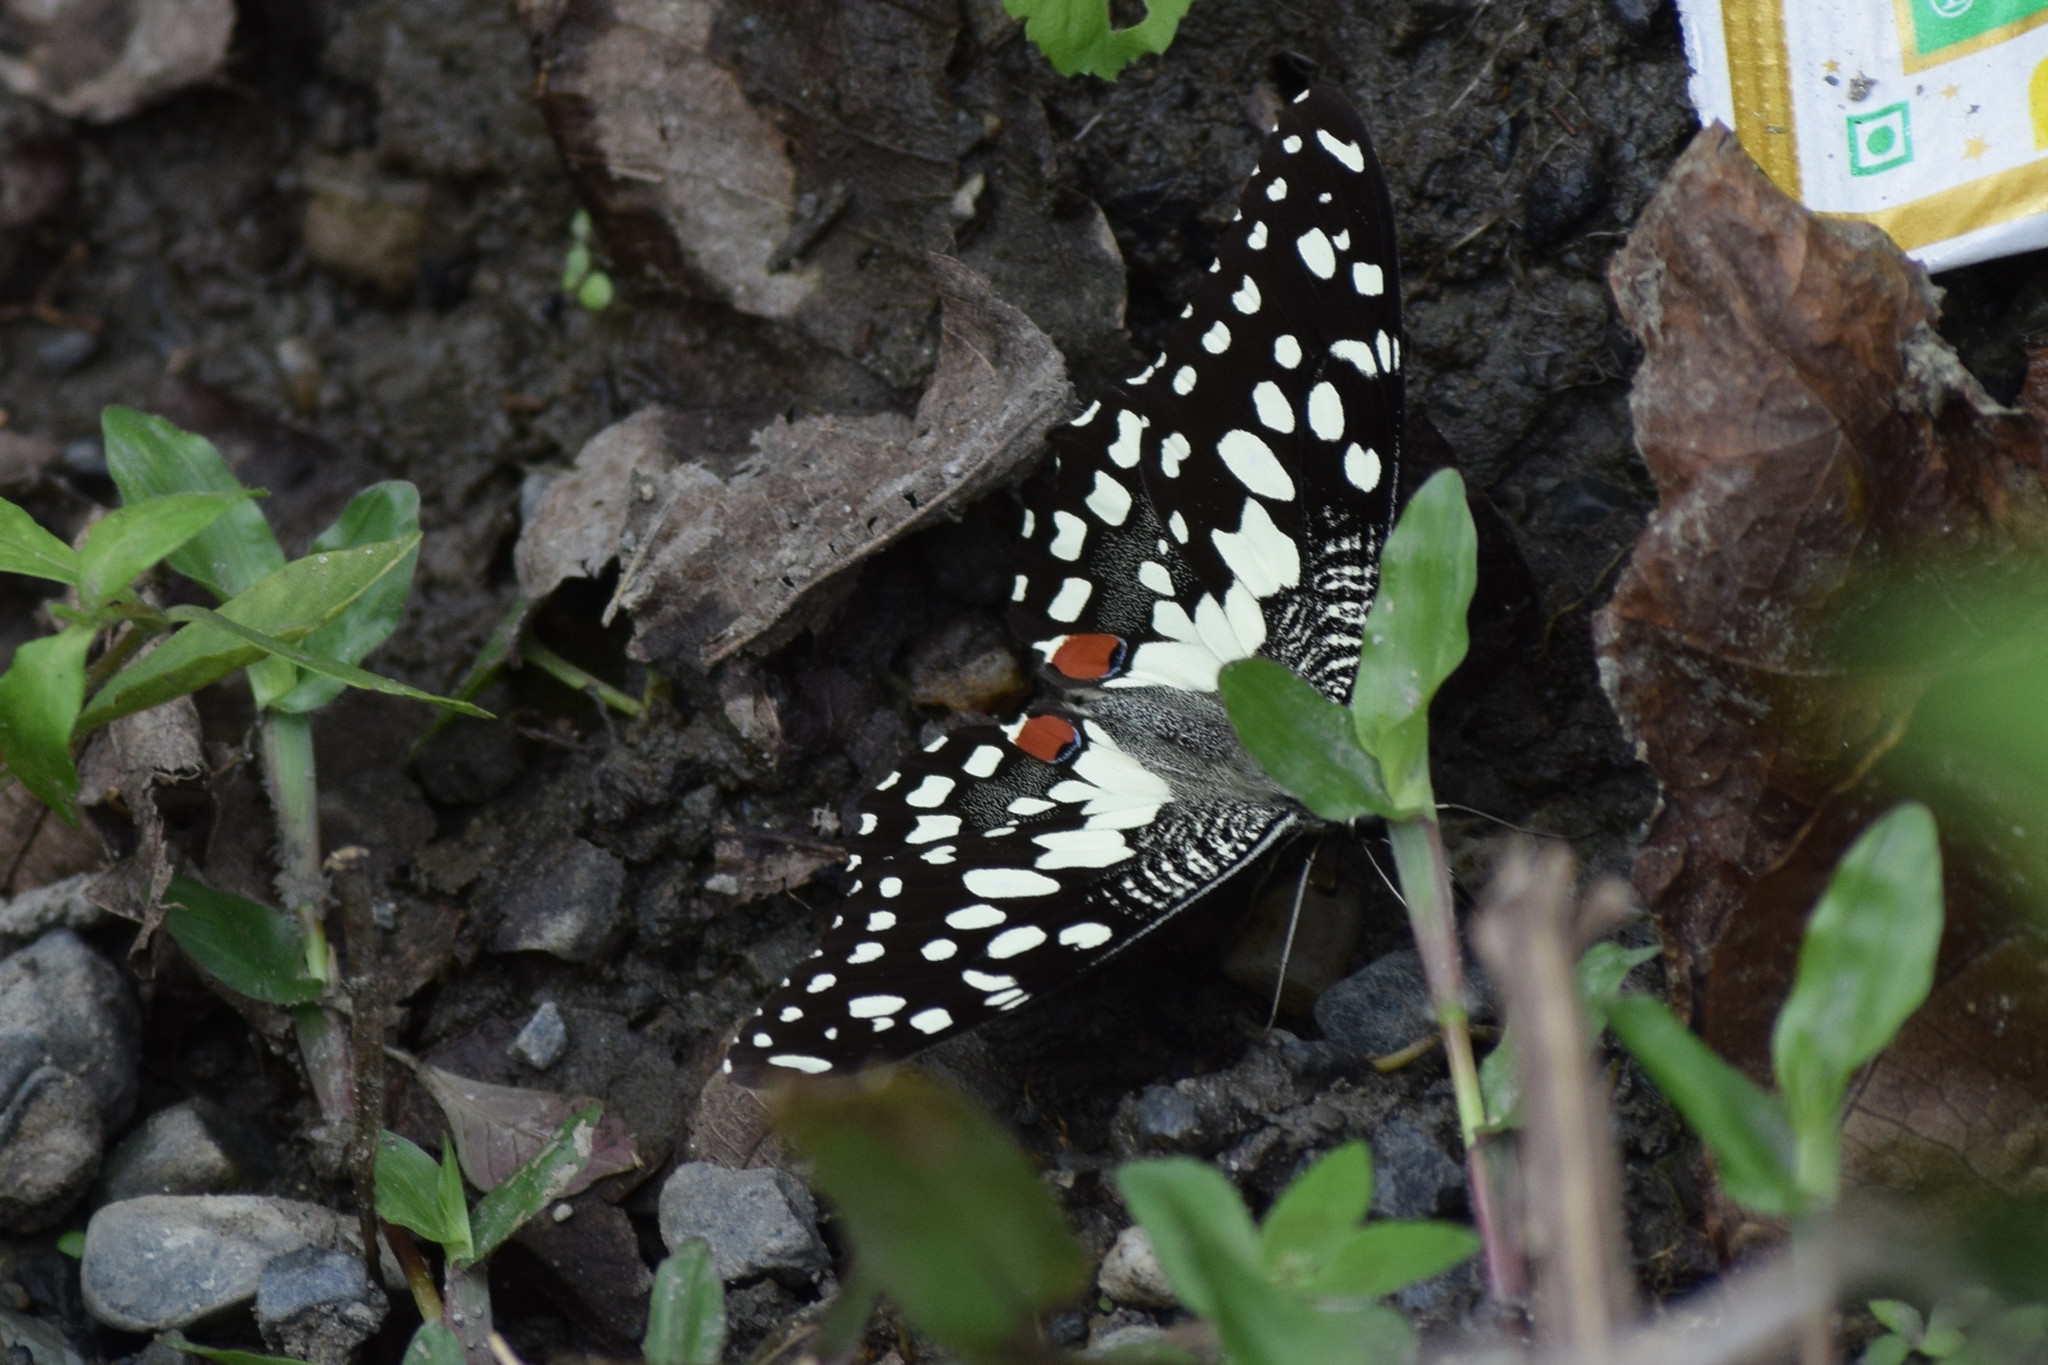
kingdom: Animalia
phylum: Arthropoda
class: Insecta
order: Lepidoptera
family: Papilionidae
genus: Papilio
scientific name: Papilio demoleus
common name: Lime butterfly
